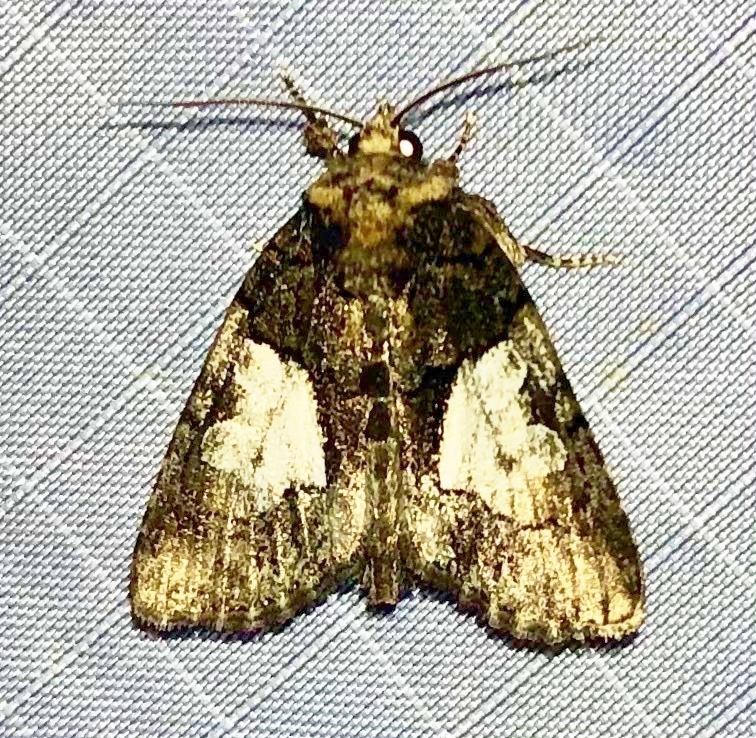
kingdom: Animalia
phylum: Arthropoda
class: Insecta
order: Lepidoptera
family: Noctuidae
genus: Chytonix
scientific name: Chytonix palliatricula
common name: Cloaked marvel
